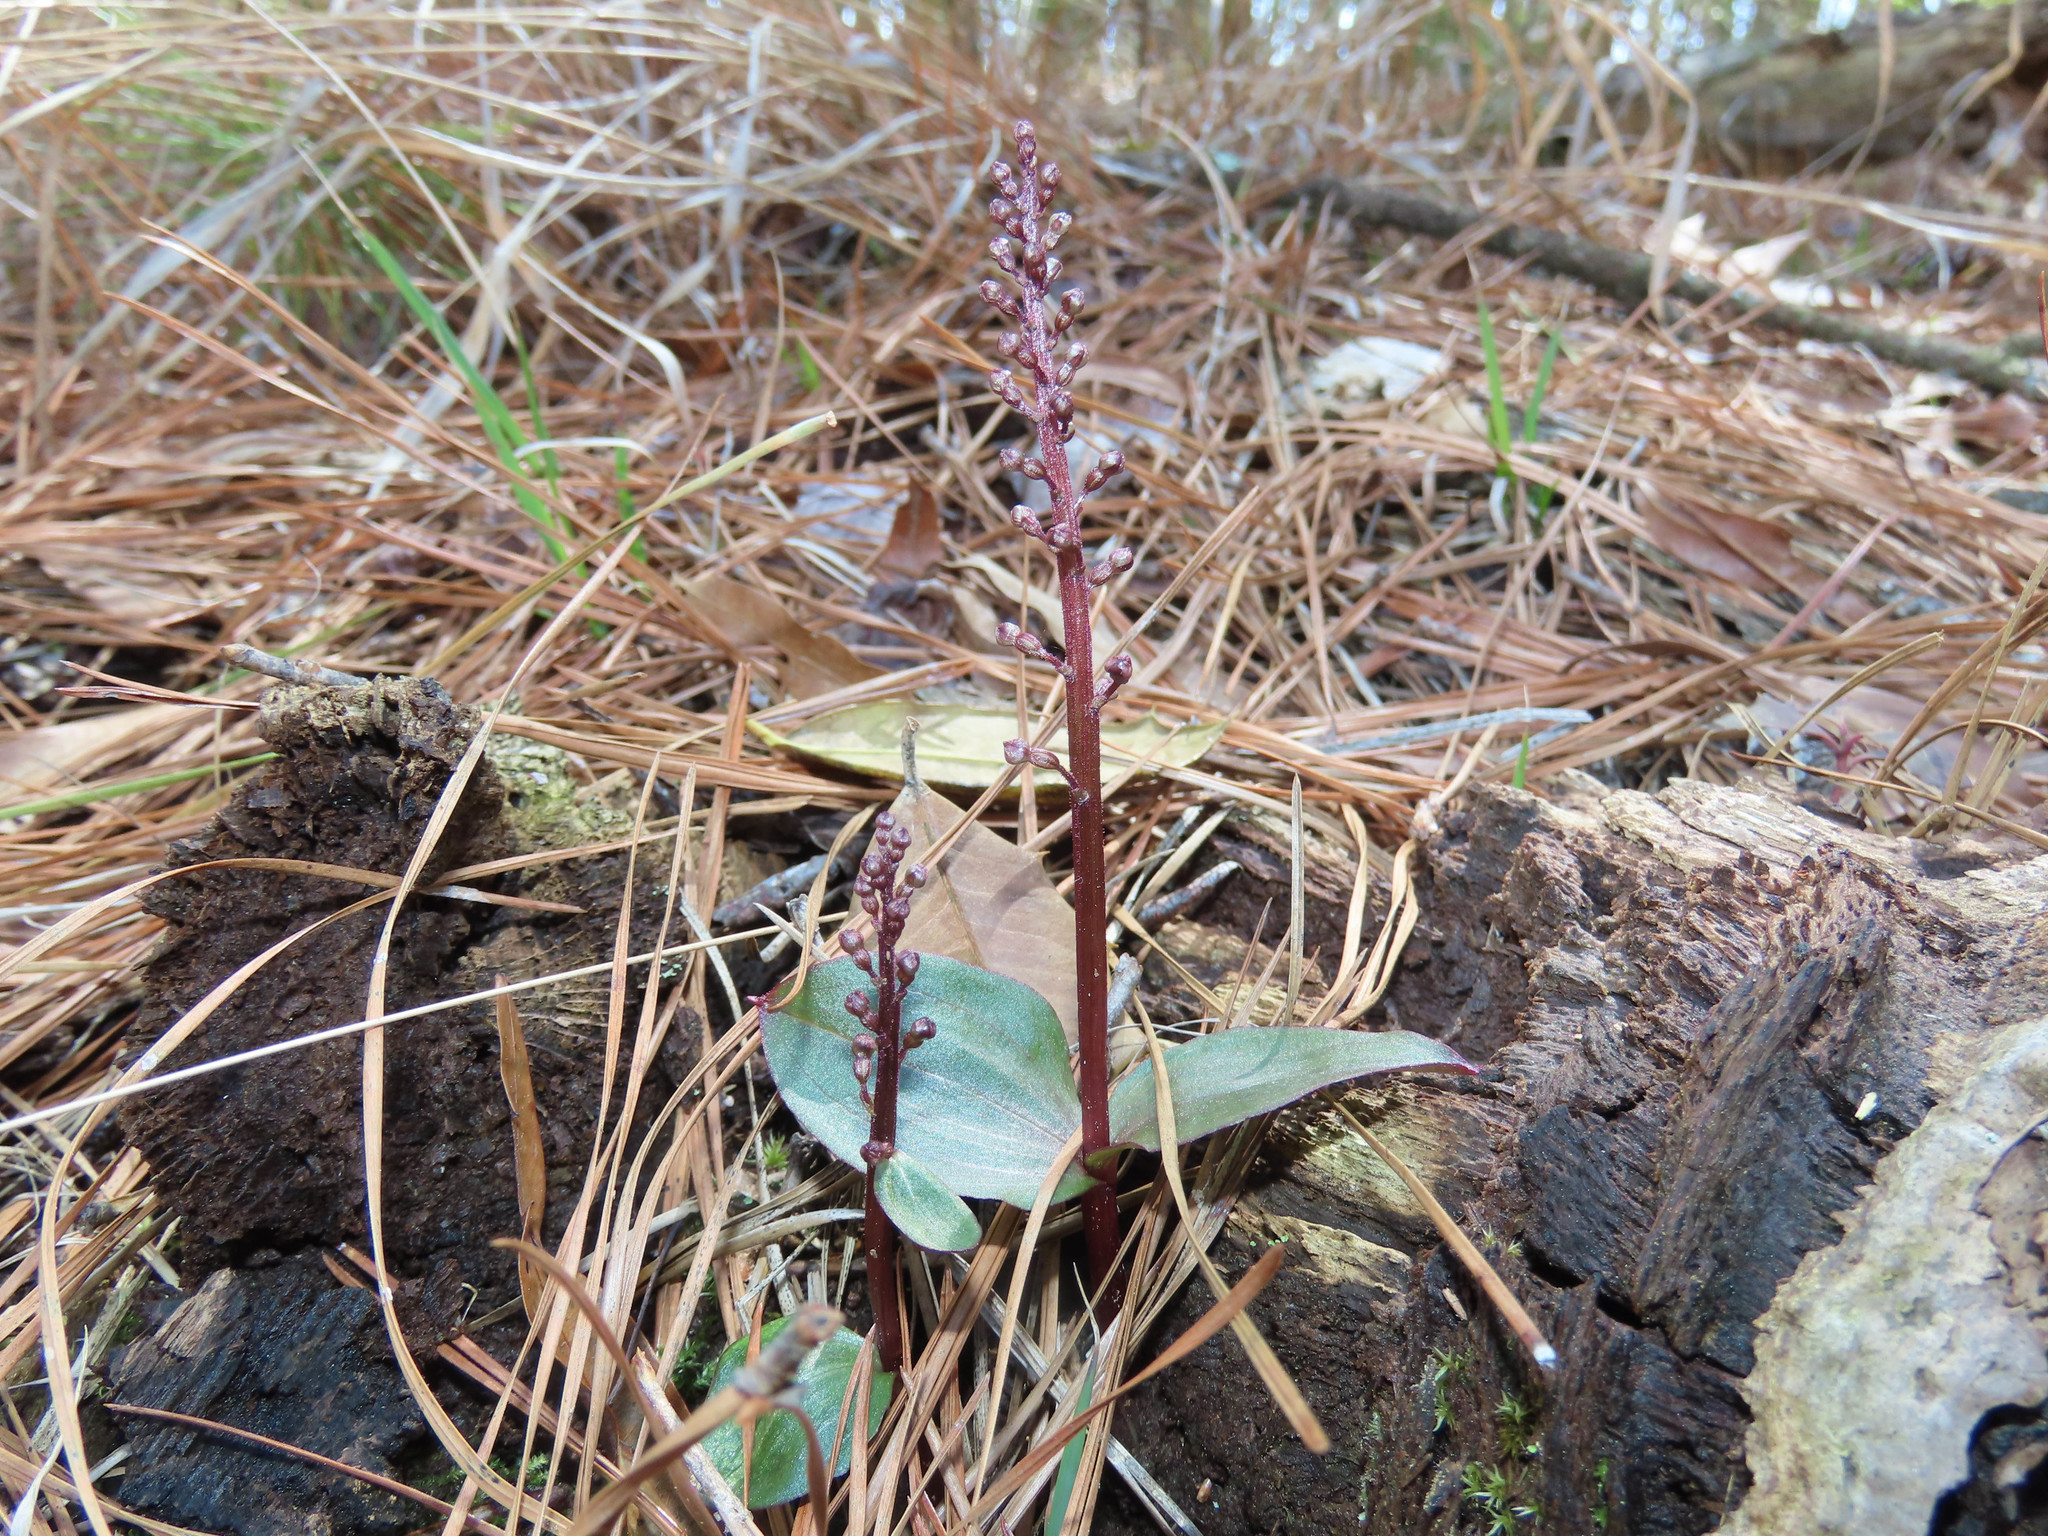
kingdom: Plantae
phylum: Tracheophyta
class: Liliopsida
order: Asparagales
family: Orchidaceae
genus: Neottia
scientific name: Neottia bifolia
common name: Southern twayblade
